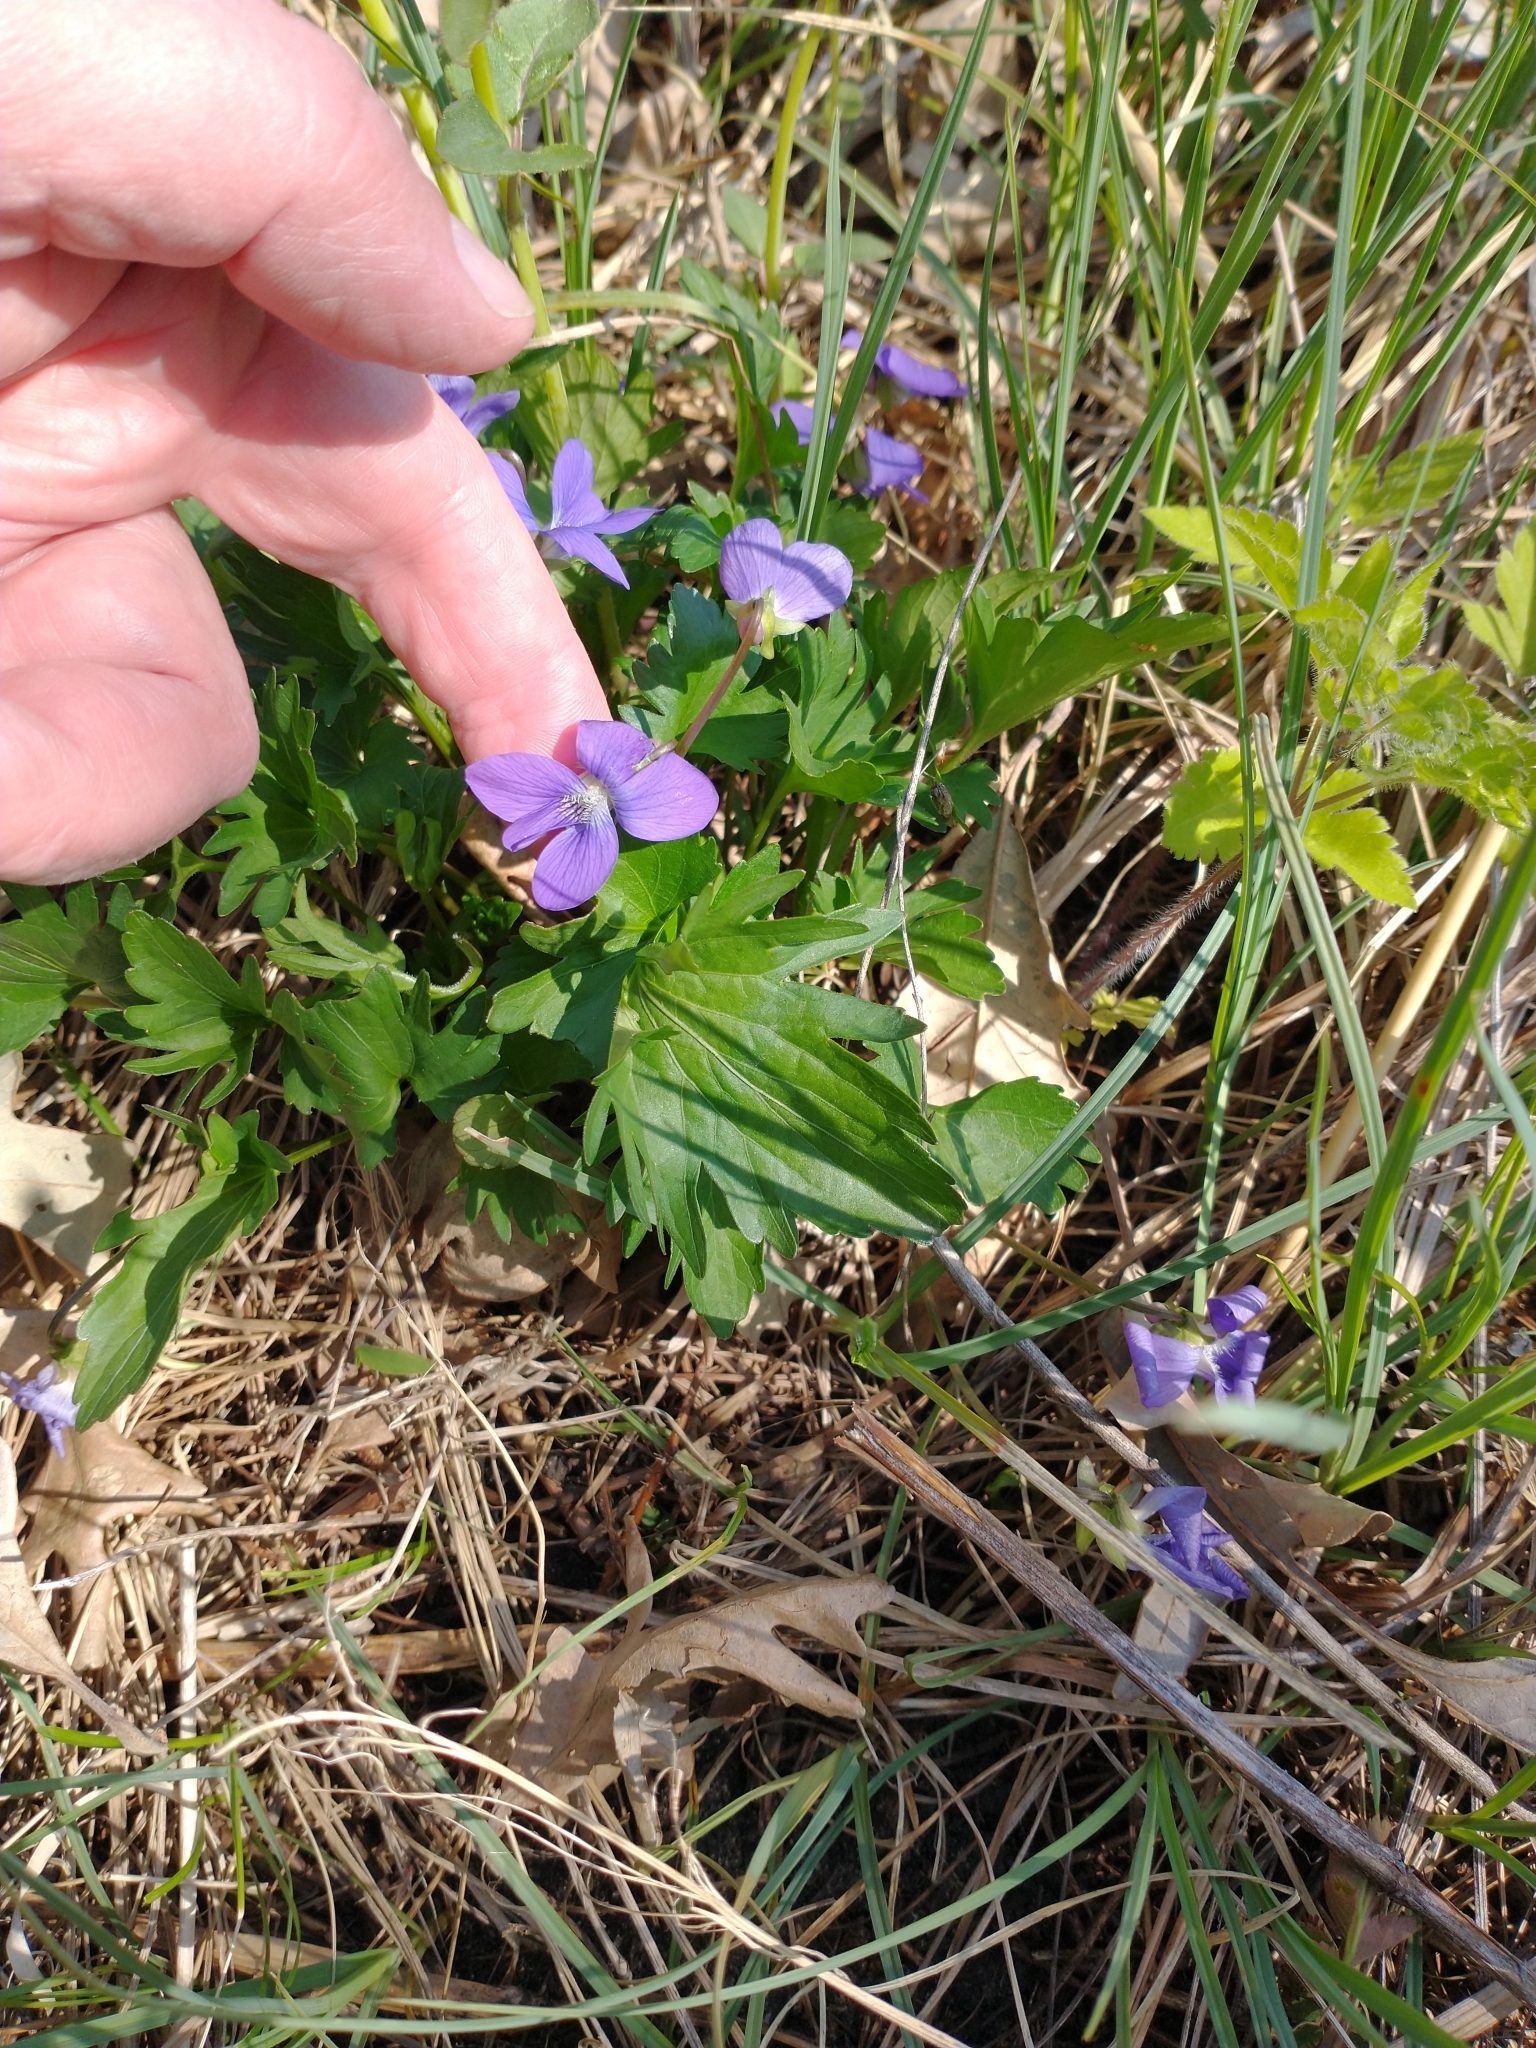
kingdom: Plantae
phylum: Tracheophyta
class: Magnoliopsida
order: Malpighiales
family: Violaceae
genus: Viola
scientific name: Viola pedatifida
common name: Prairie violet
